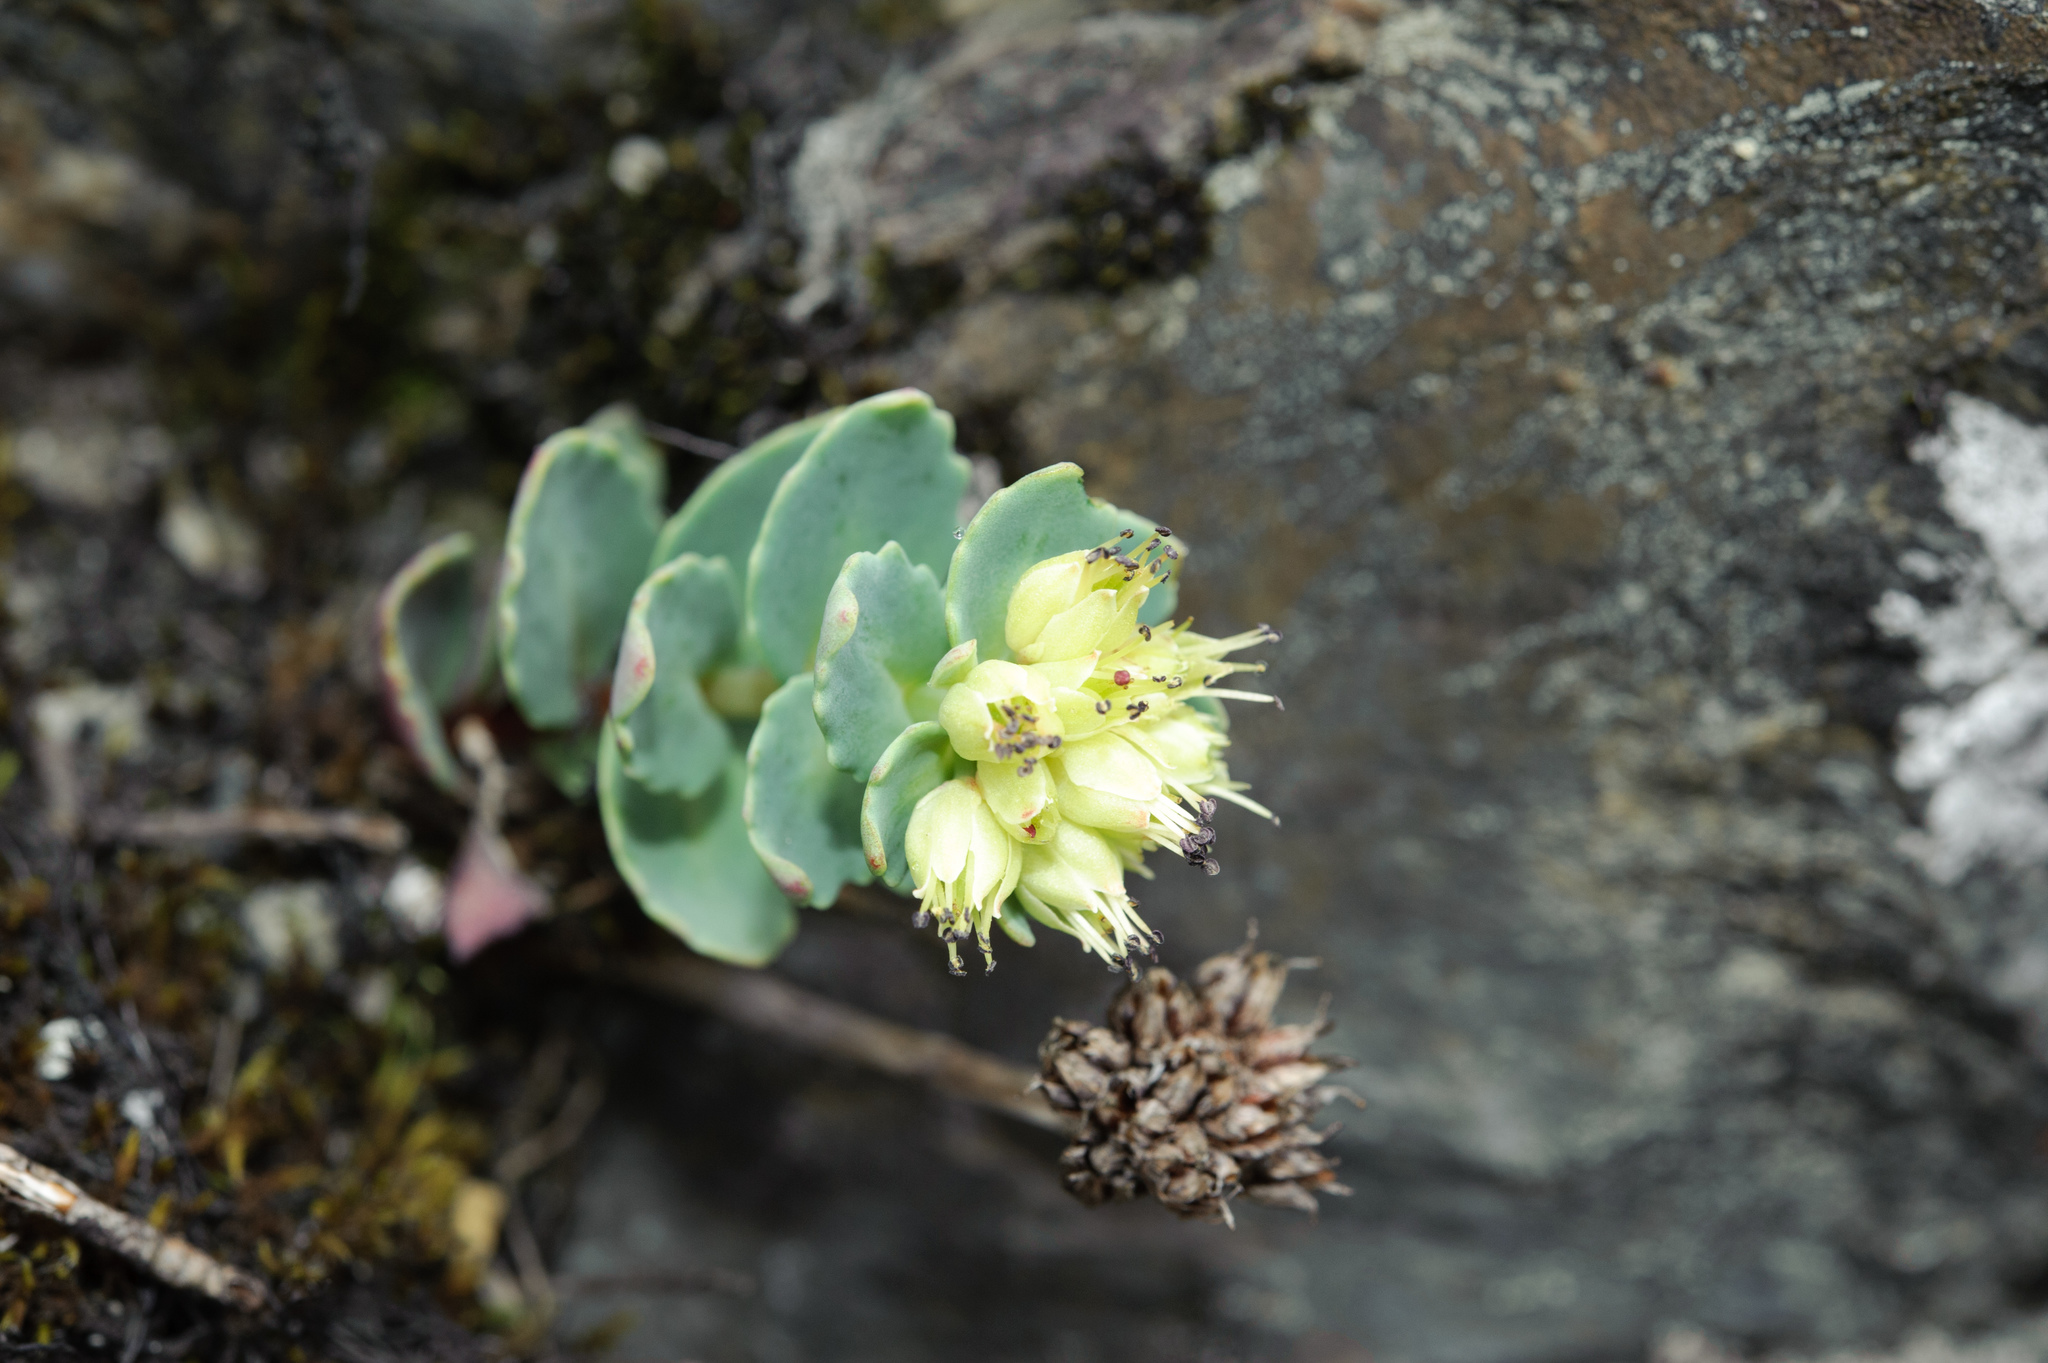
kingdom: Plantae
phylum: Tracheophyta
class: Magnoliopsida
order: Saxifragales
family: Crassulaceae
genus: Phedimus
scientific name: Phedimus subcapitatus
